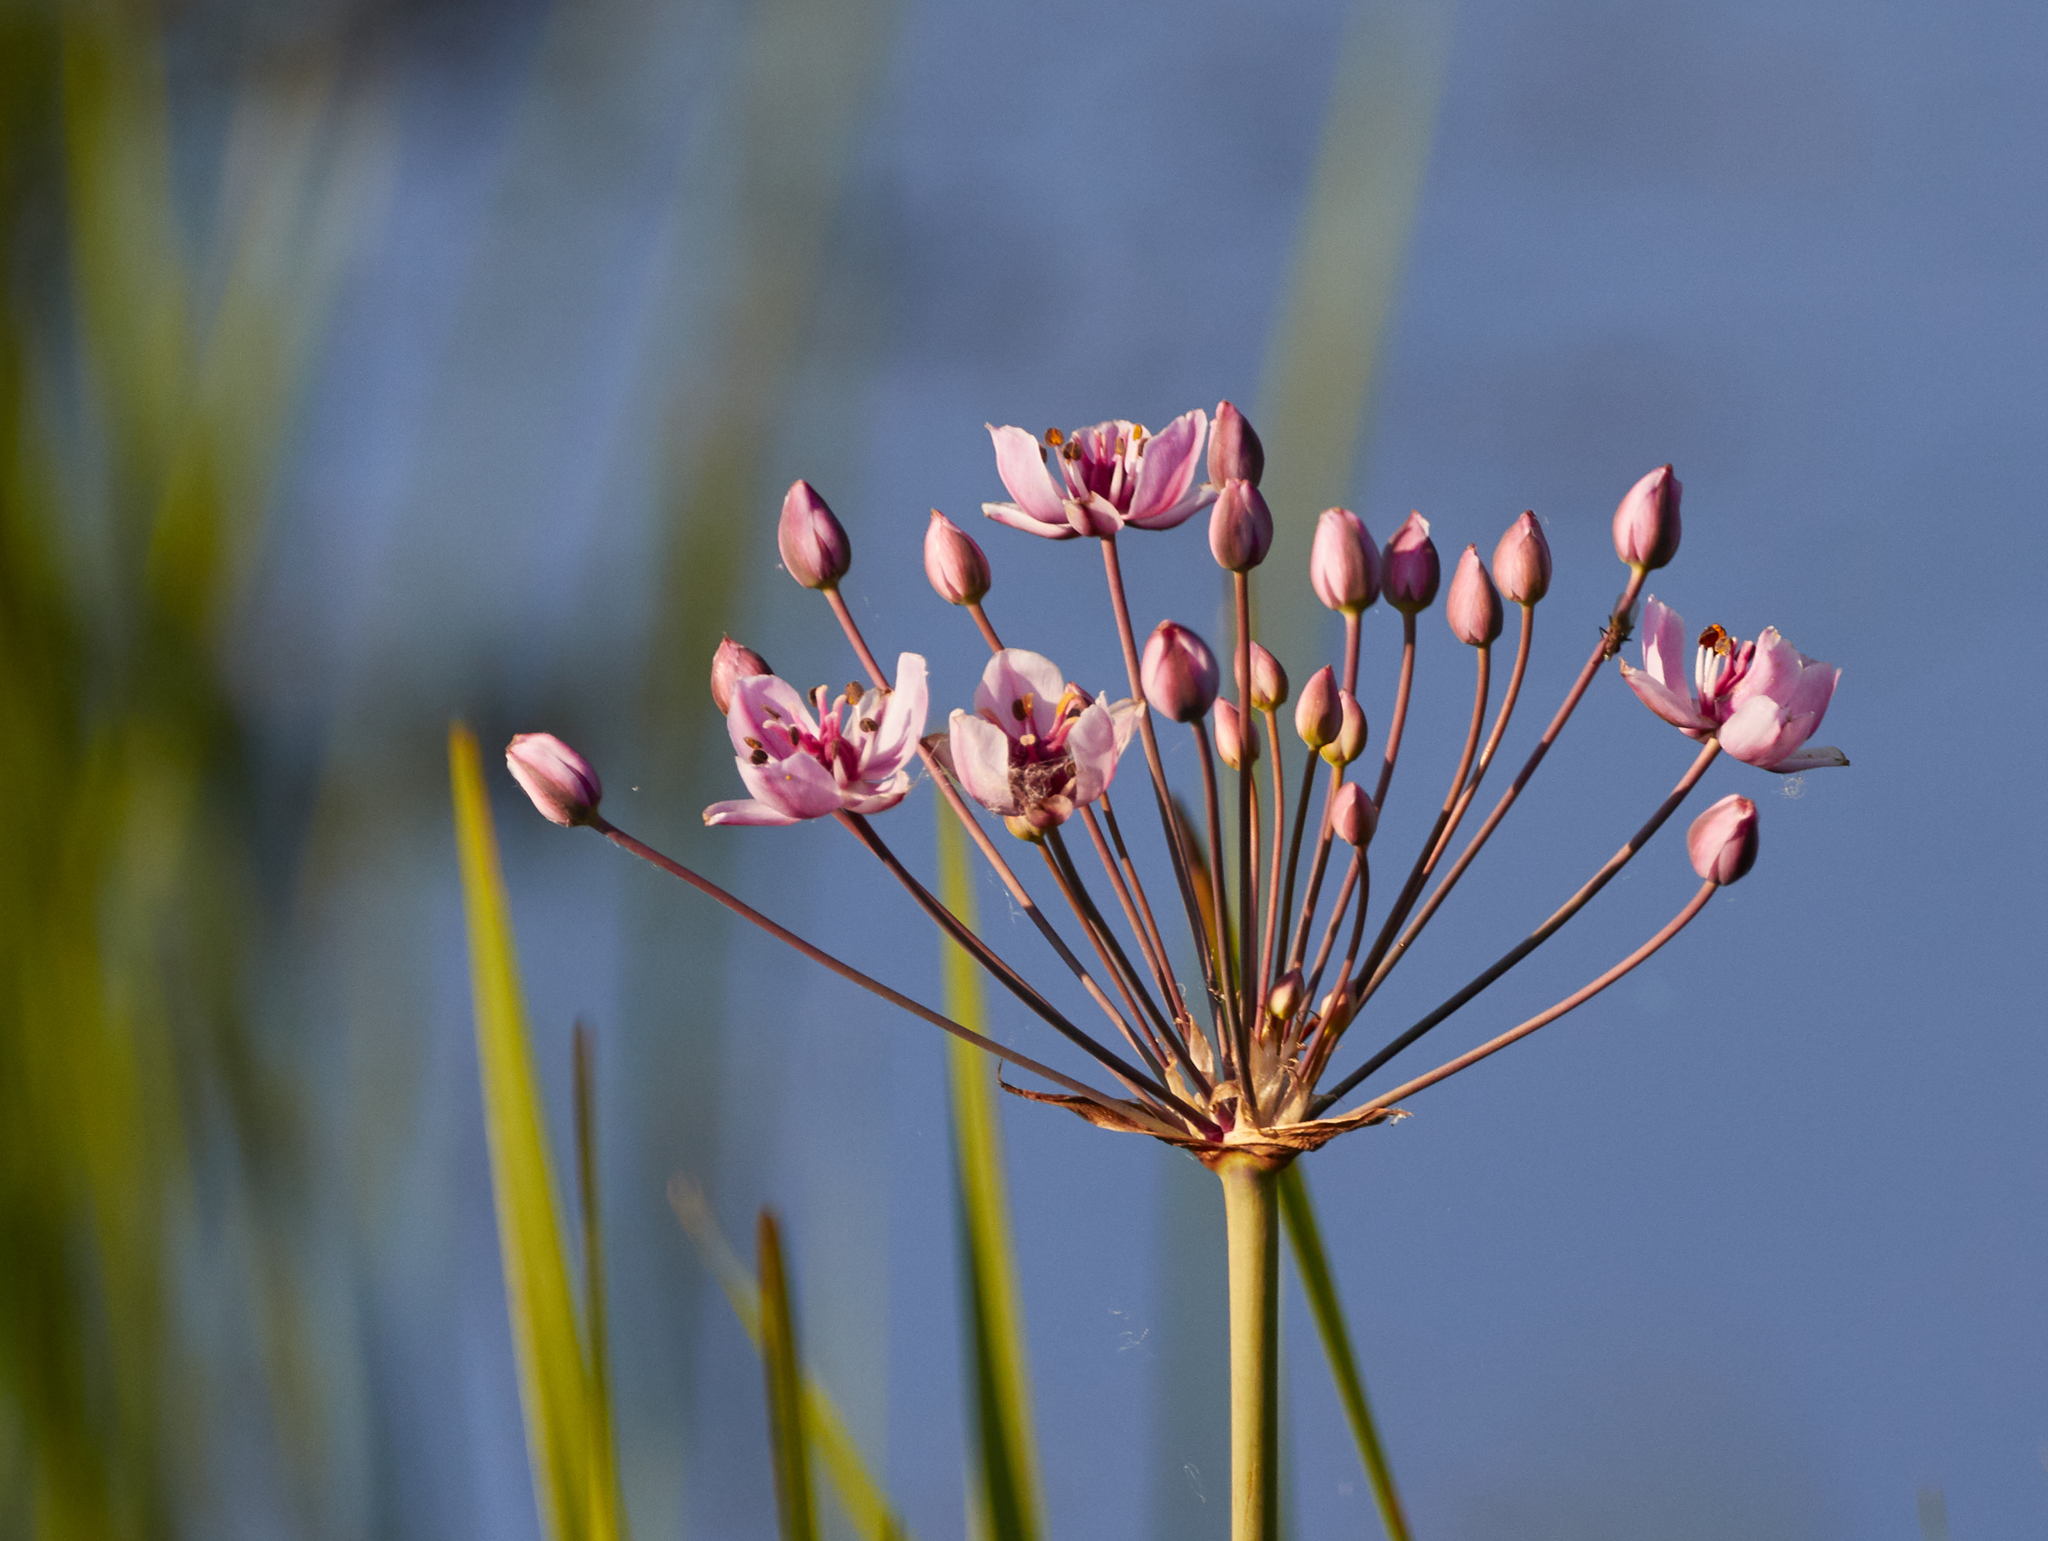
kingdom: Plantae
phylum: Tracheophyta
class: Liliopsida
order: Alismatales
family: Butomaceae
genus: Butomus
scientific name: Butomus umbellatus
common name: Flowering-rush
